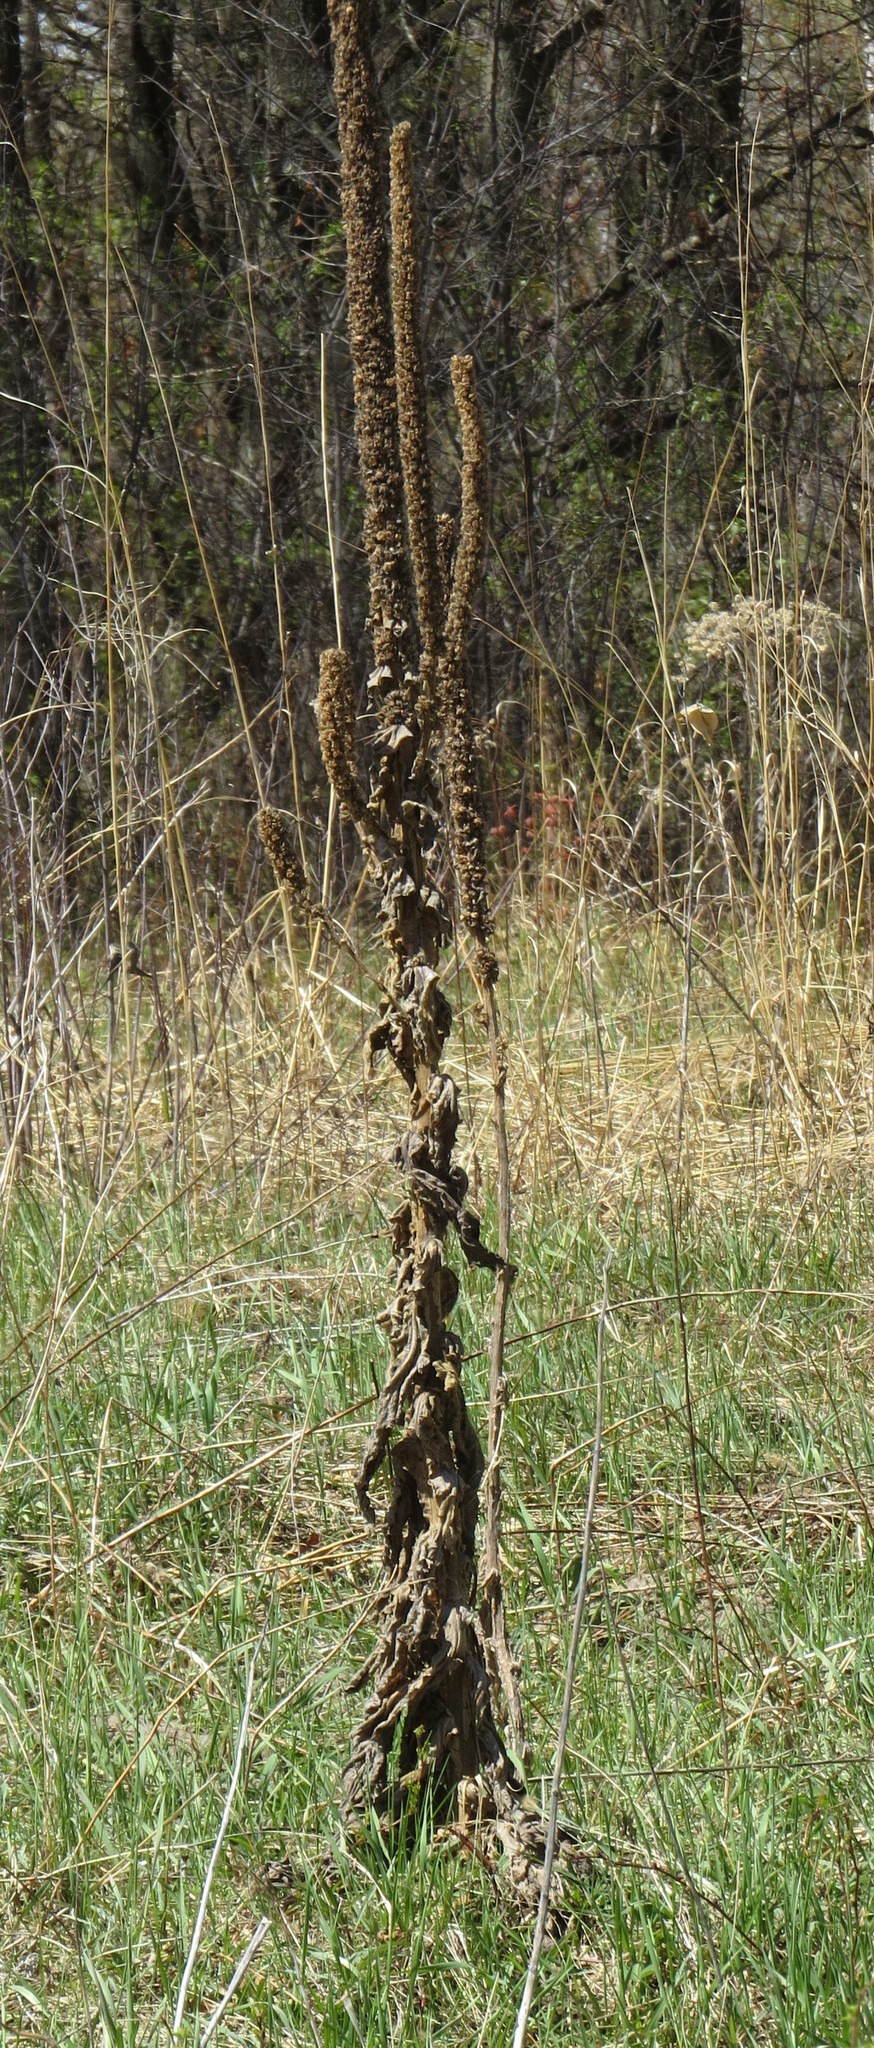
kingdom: Plantae
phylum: Tracheophyta
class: Magnoliopsida
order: Lamiales
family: Scrophulariaceae
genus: Verbascum
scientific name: Verbascum thapsus
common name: Common mullein
